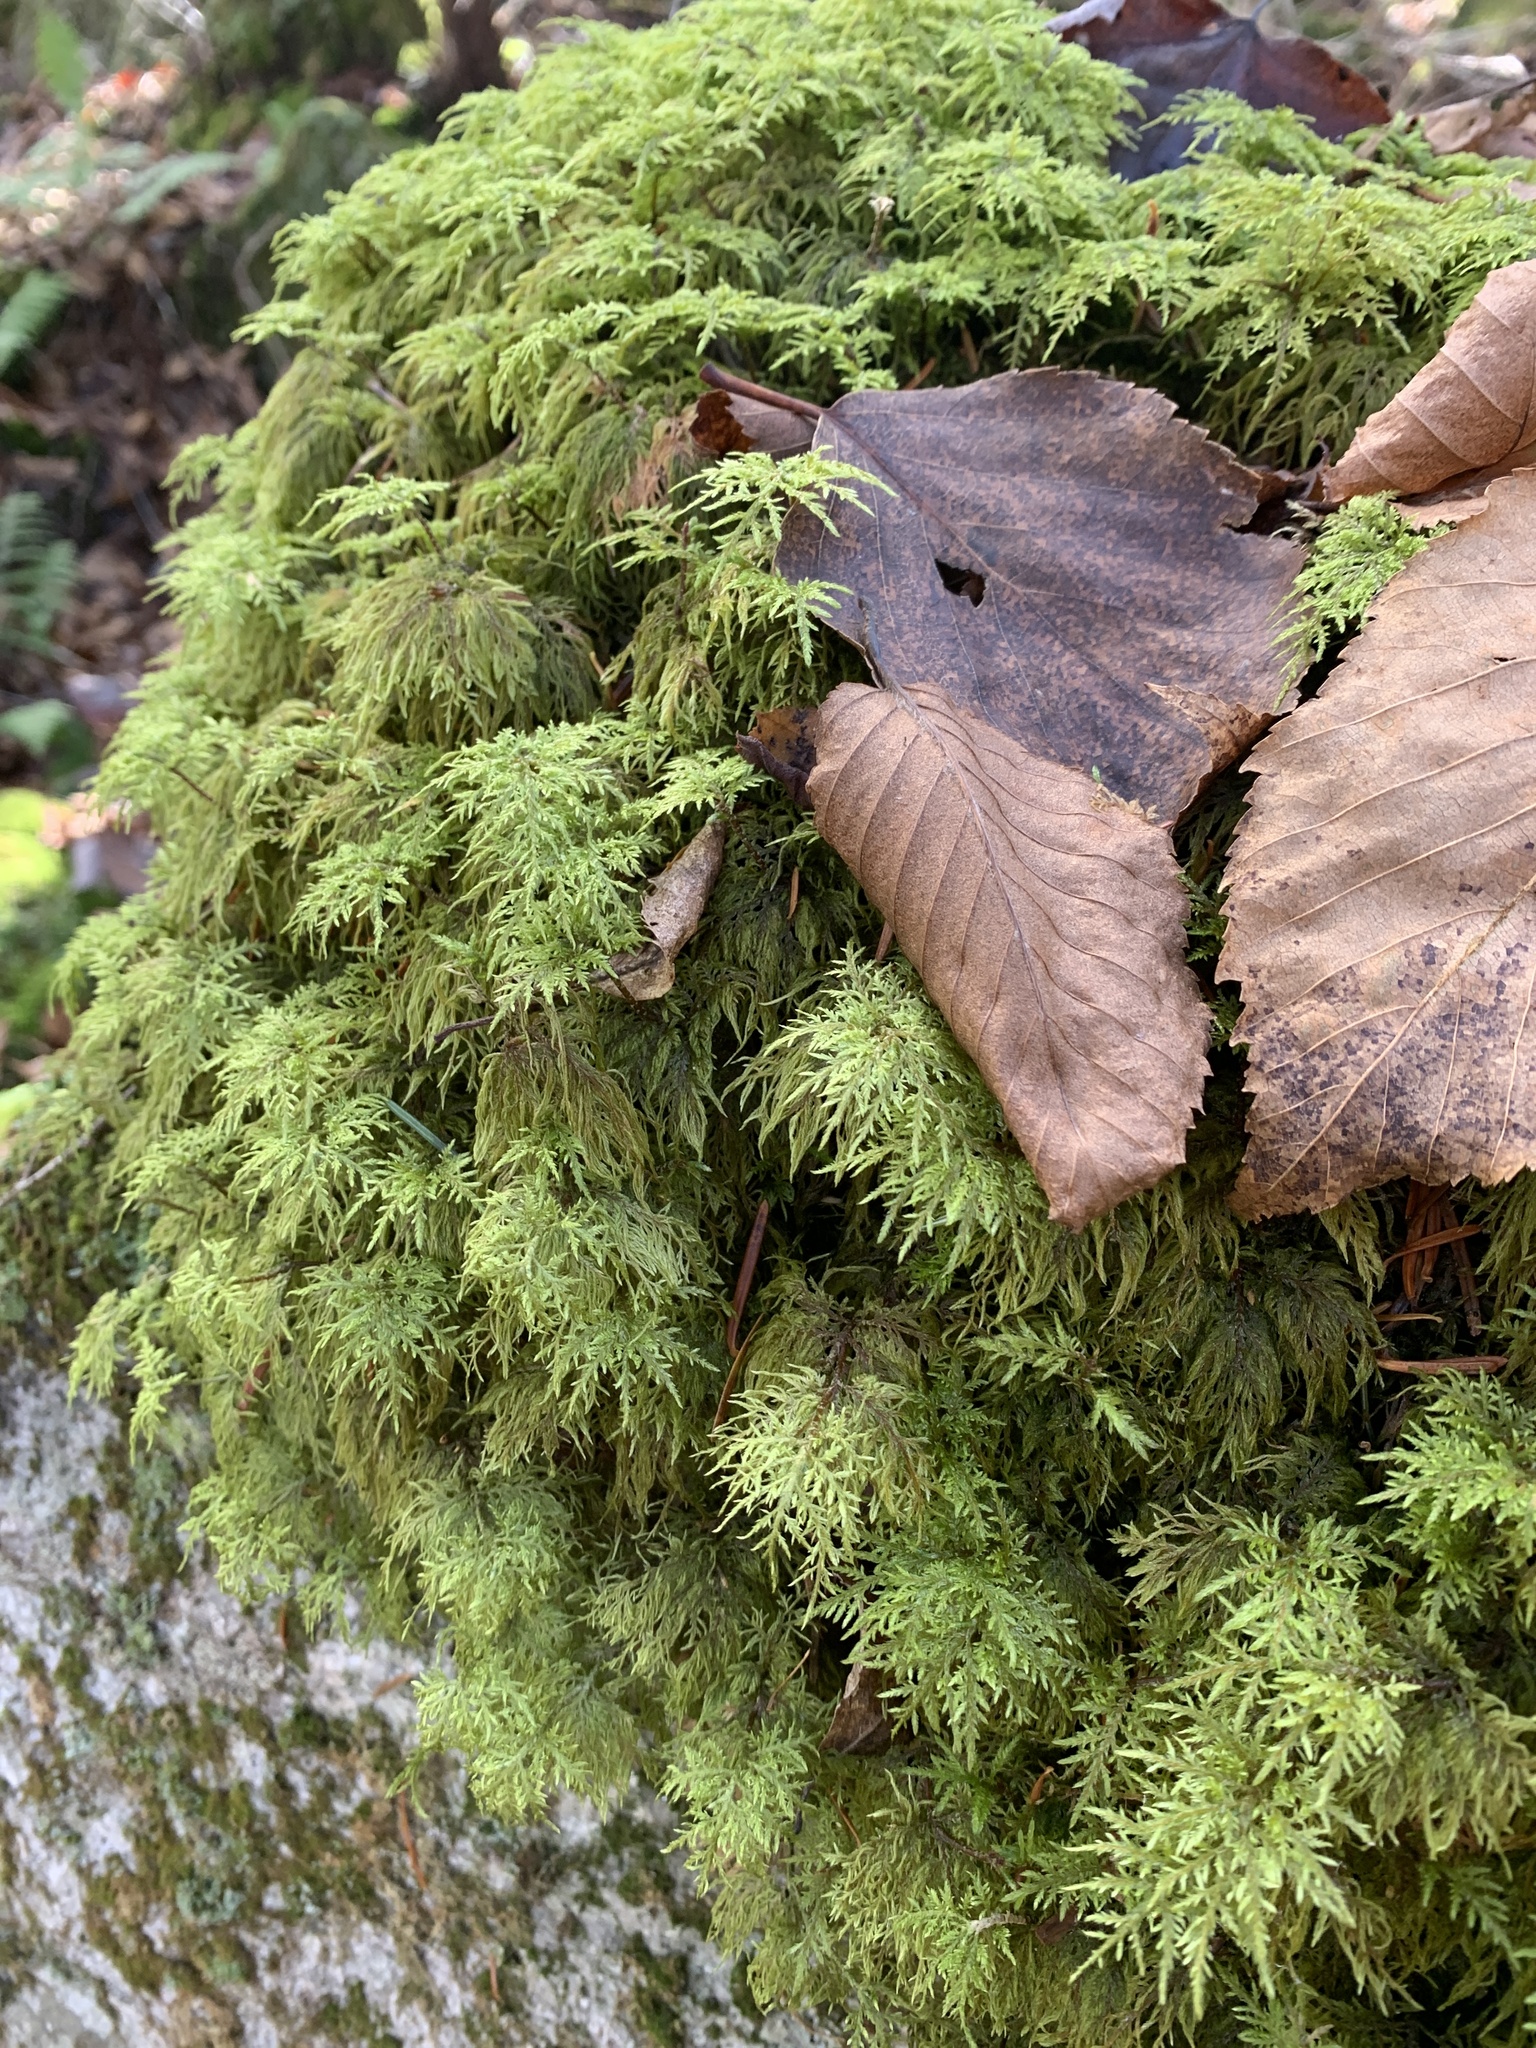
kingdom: Plantae
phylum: Bryophyta
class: Bryopsida
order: Hypnales
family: Hylocomiaceae
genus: Hylocomium
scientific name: Hylocomium splendens
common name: Stairstep moss
